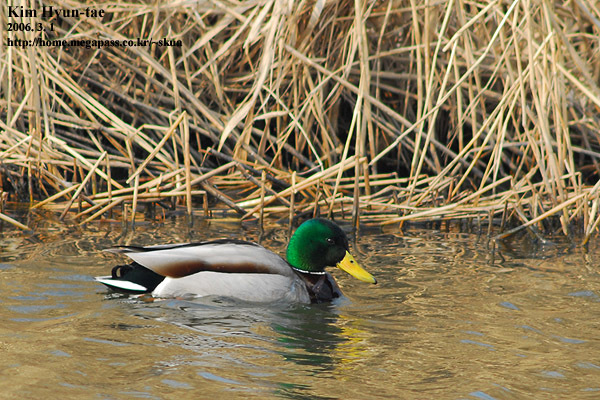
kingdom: Animalia
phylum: Chordata
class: Aves
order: Anseriformes
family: Anatidae
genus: Anas
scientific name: Anas platyrhynchos
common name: Mallard
